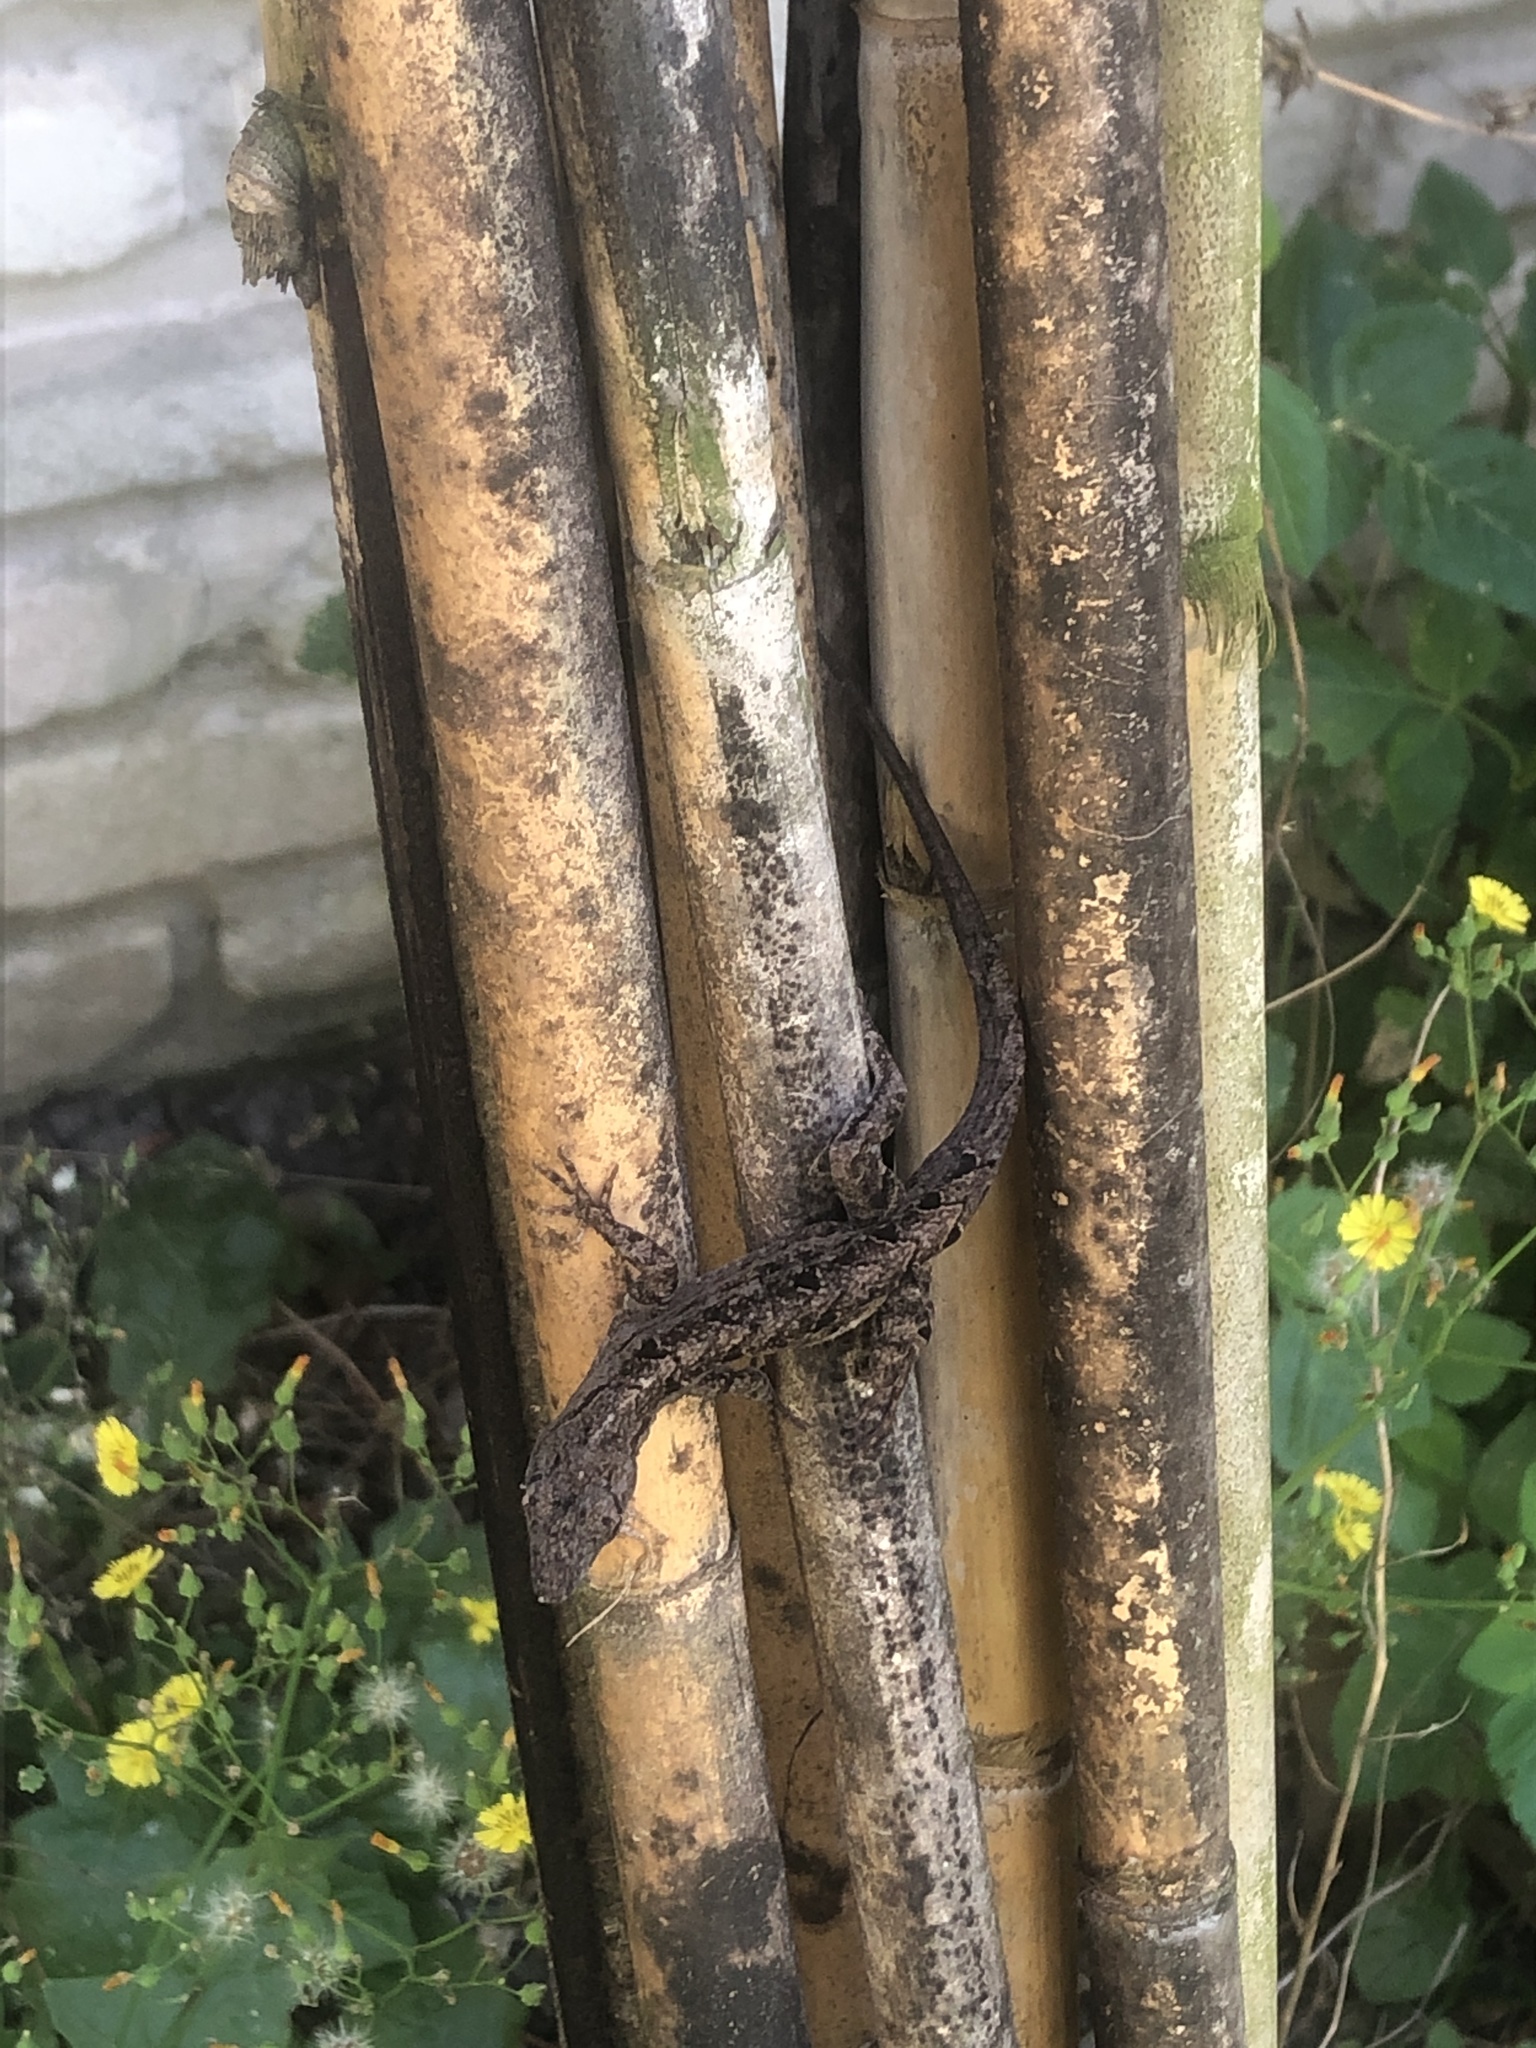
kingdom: Animalia
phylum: Chordata
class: Squamata
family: Dactyloidae
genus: Anolis
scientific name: Anolis sagrei
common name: Brown anole
